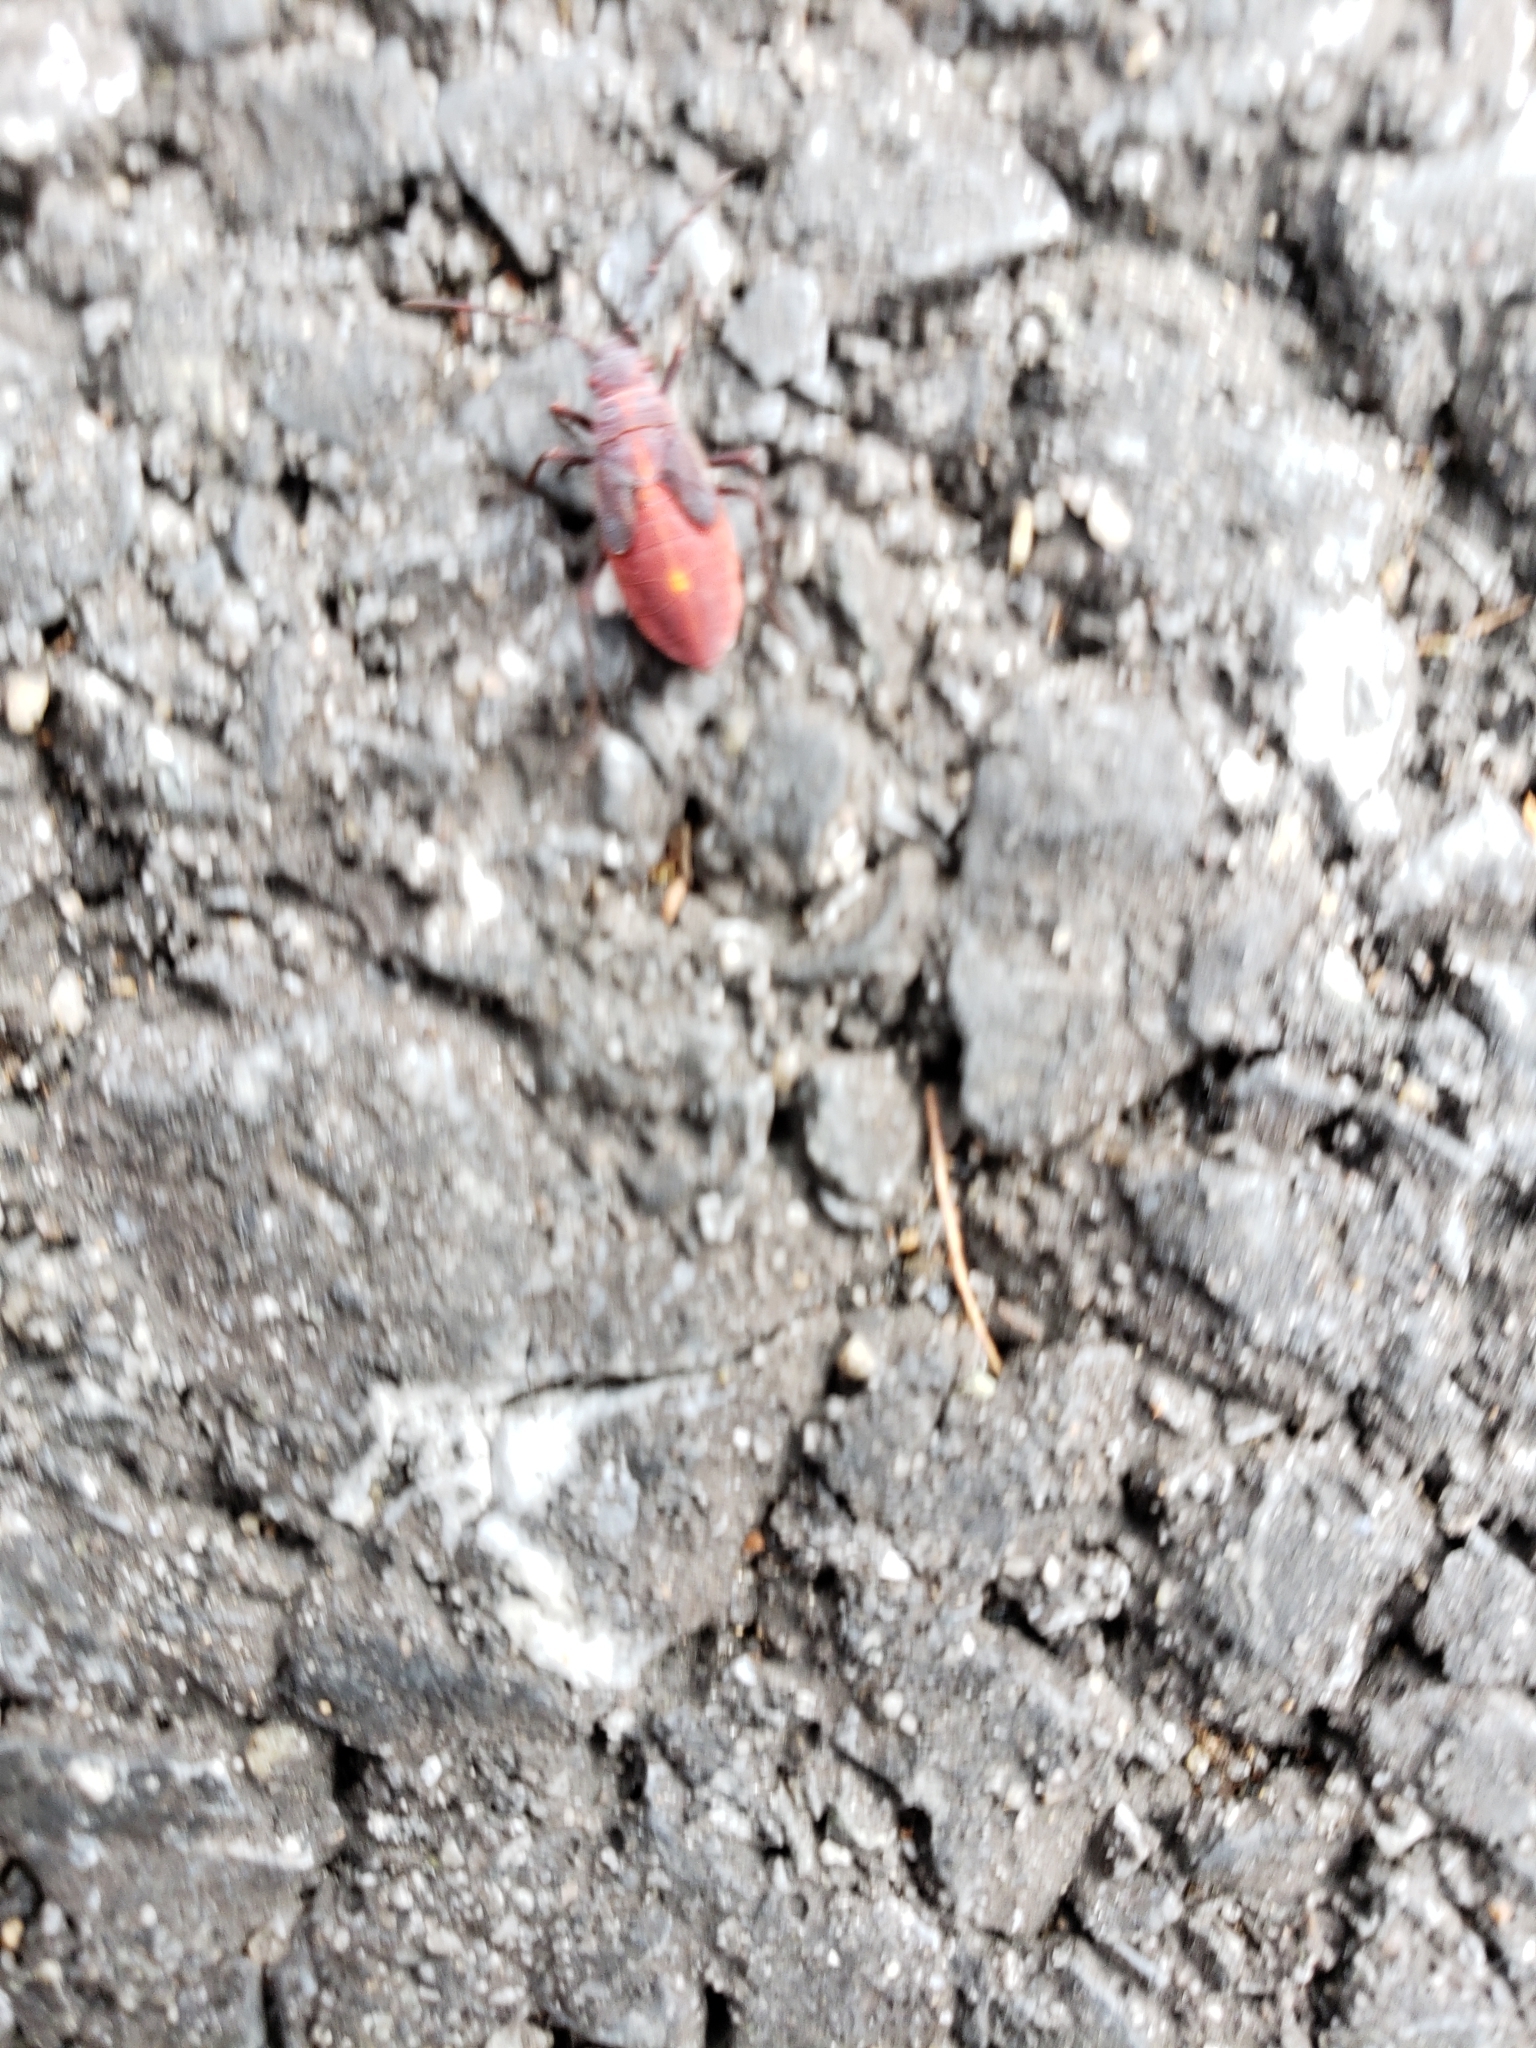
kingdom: Animalia
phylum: Arthropoda
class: Insecta
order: Hemiptera
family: Rhopalidae
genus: Boisea
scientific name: Boisea trivittata
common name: Boxelder bug
